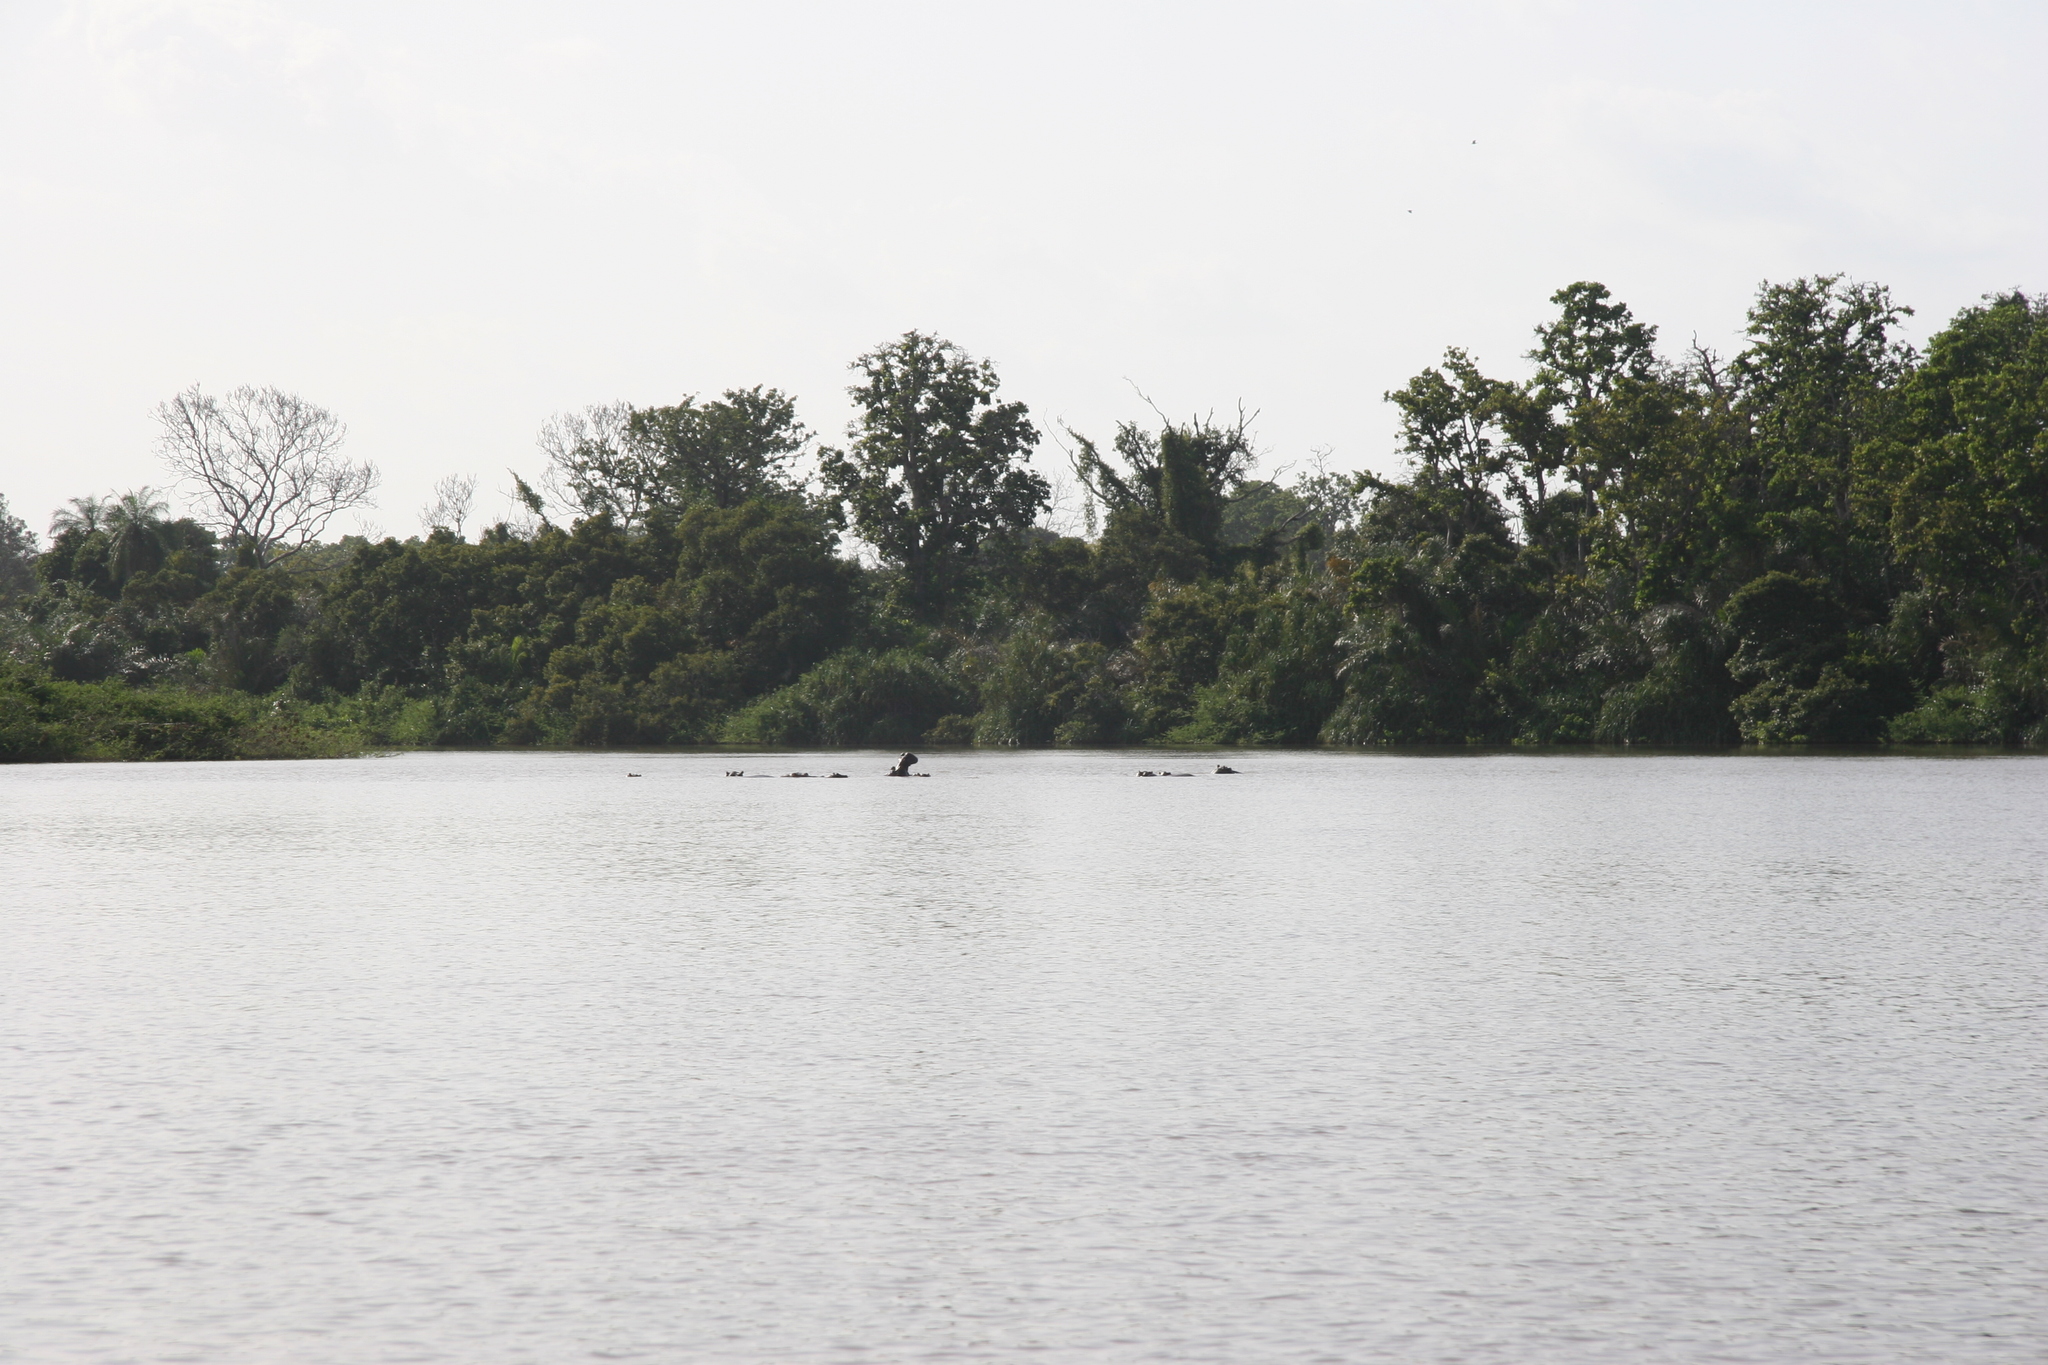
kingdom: Animalia
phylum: Chordata
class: Mammalia
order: Artiodactyla
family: Hippopotamidae
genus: Hippopotamus
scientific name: Hippopotamus amphibius
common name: Common hippopotamus
